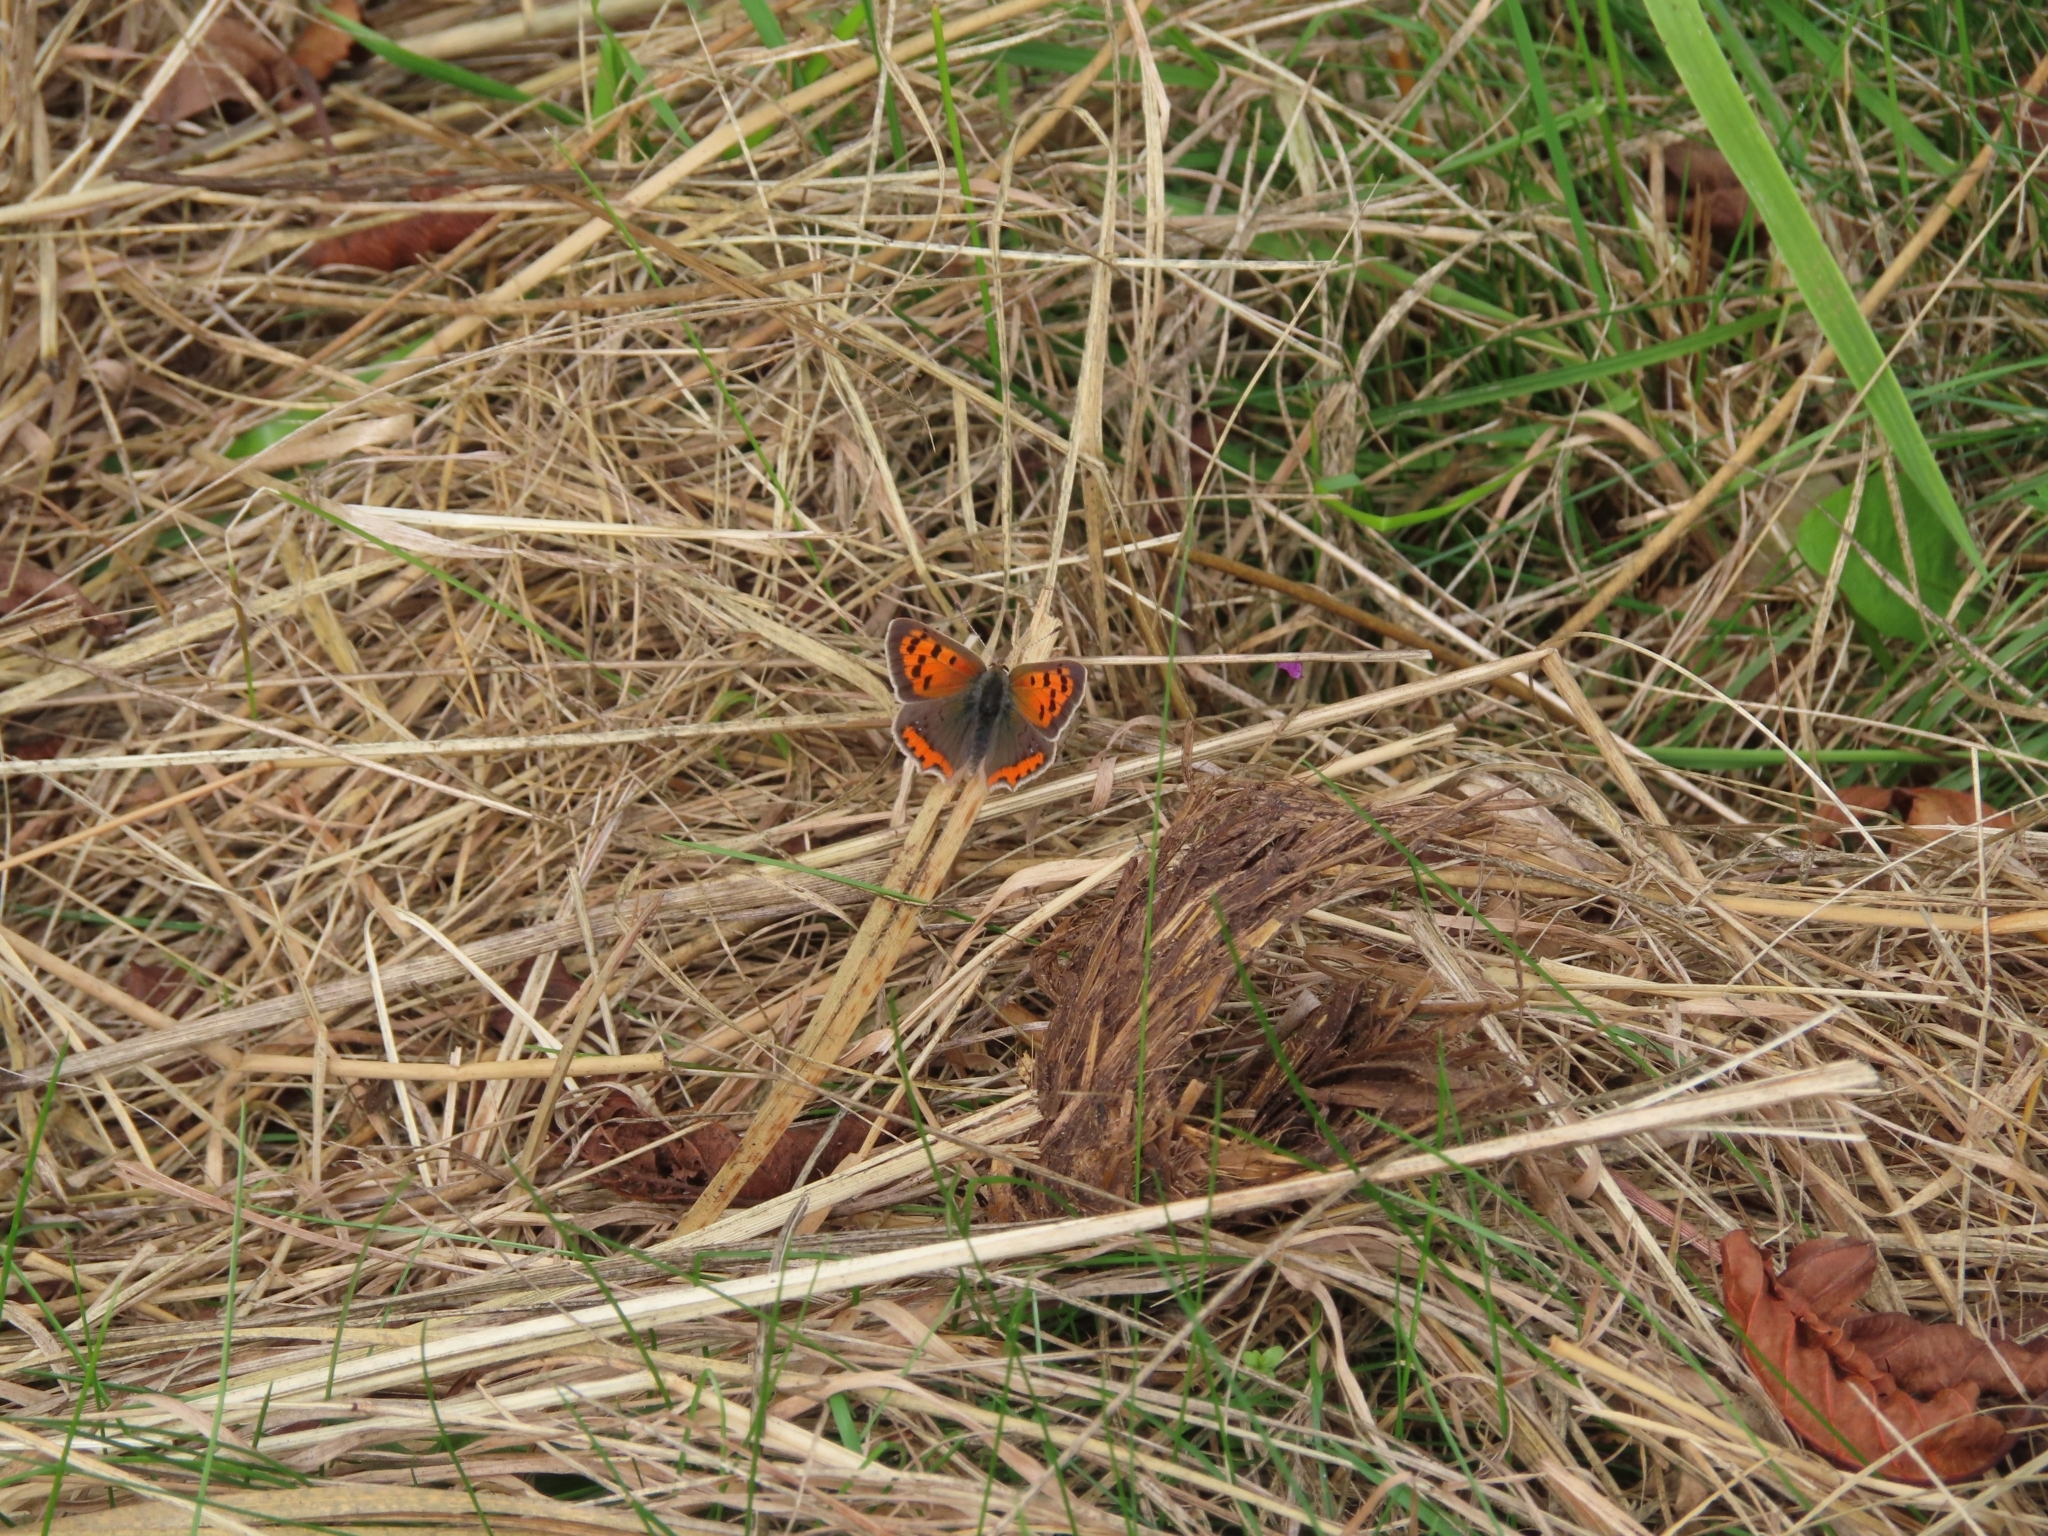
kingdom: Animalia
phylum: Arthropoda
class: Insecta
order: Lepidoptera
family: Lycaenidae
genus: Lycaena
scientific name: Lycaena phlaeas
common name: Small copper
